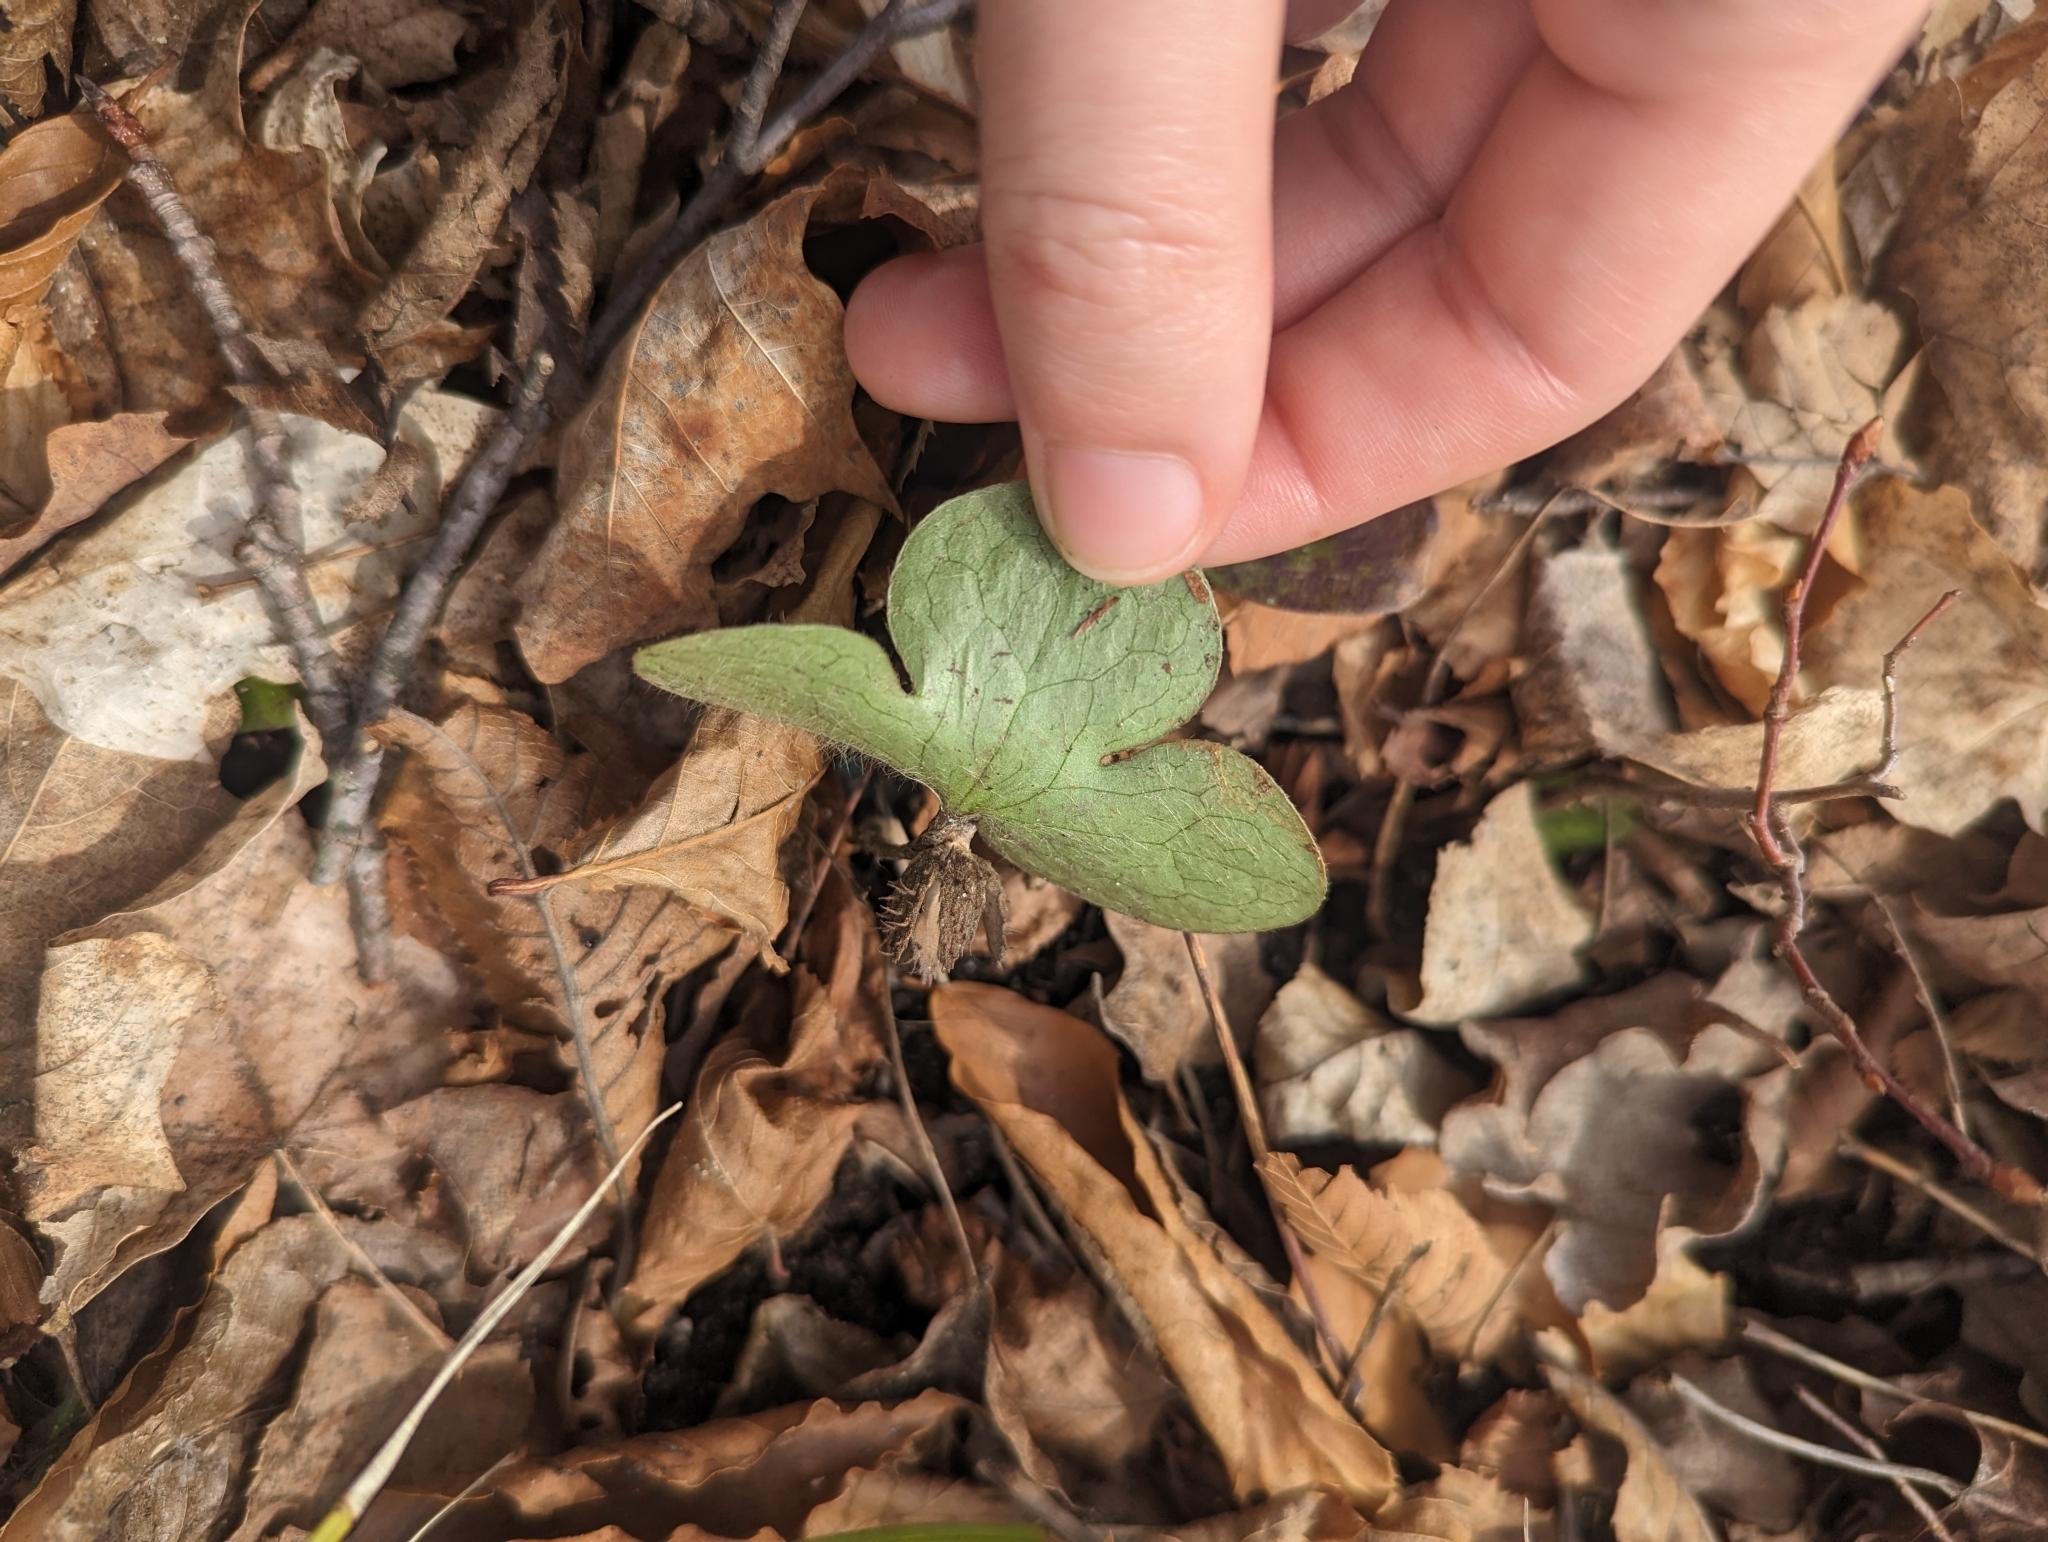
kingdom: Plantae
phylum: Tracheophyta
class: Magnoliopsida
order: Ranunculales
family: Ranunculaceae
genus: Hepatica
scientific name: Hepatica americana
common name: American hepatica
